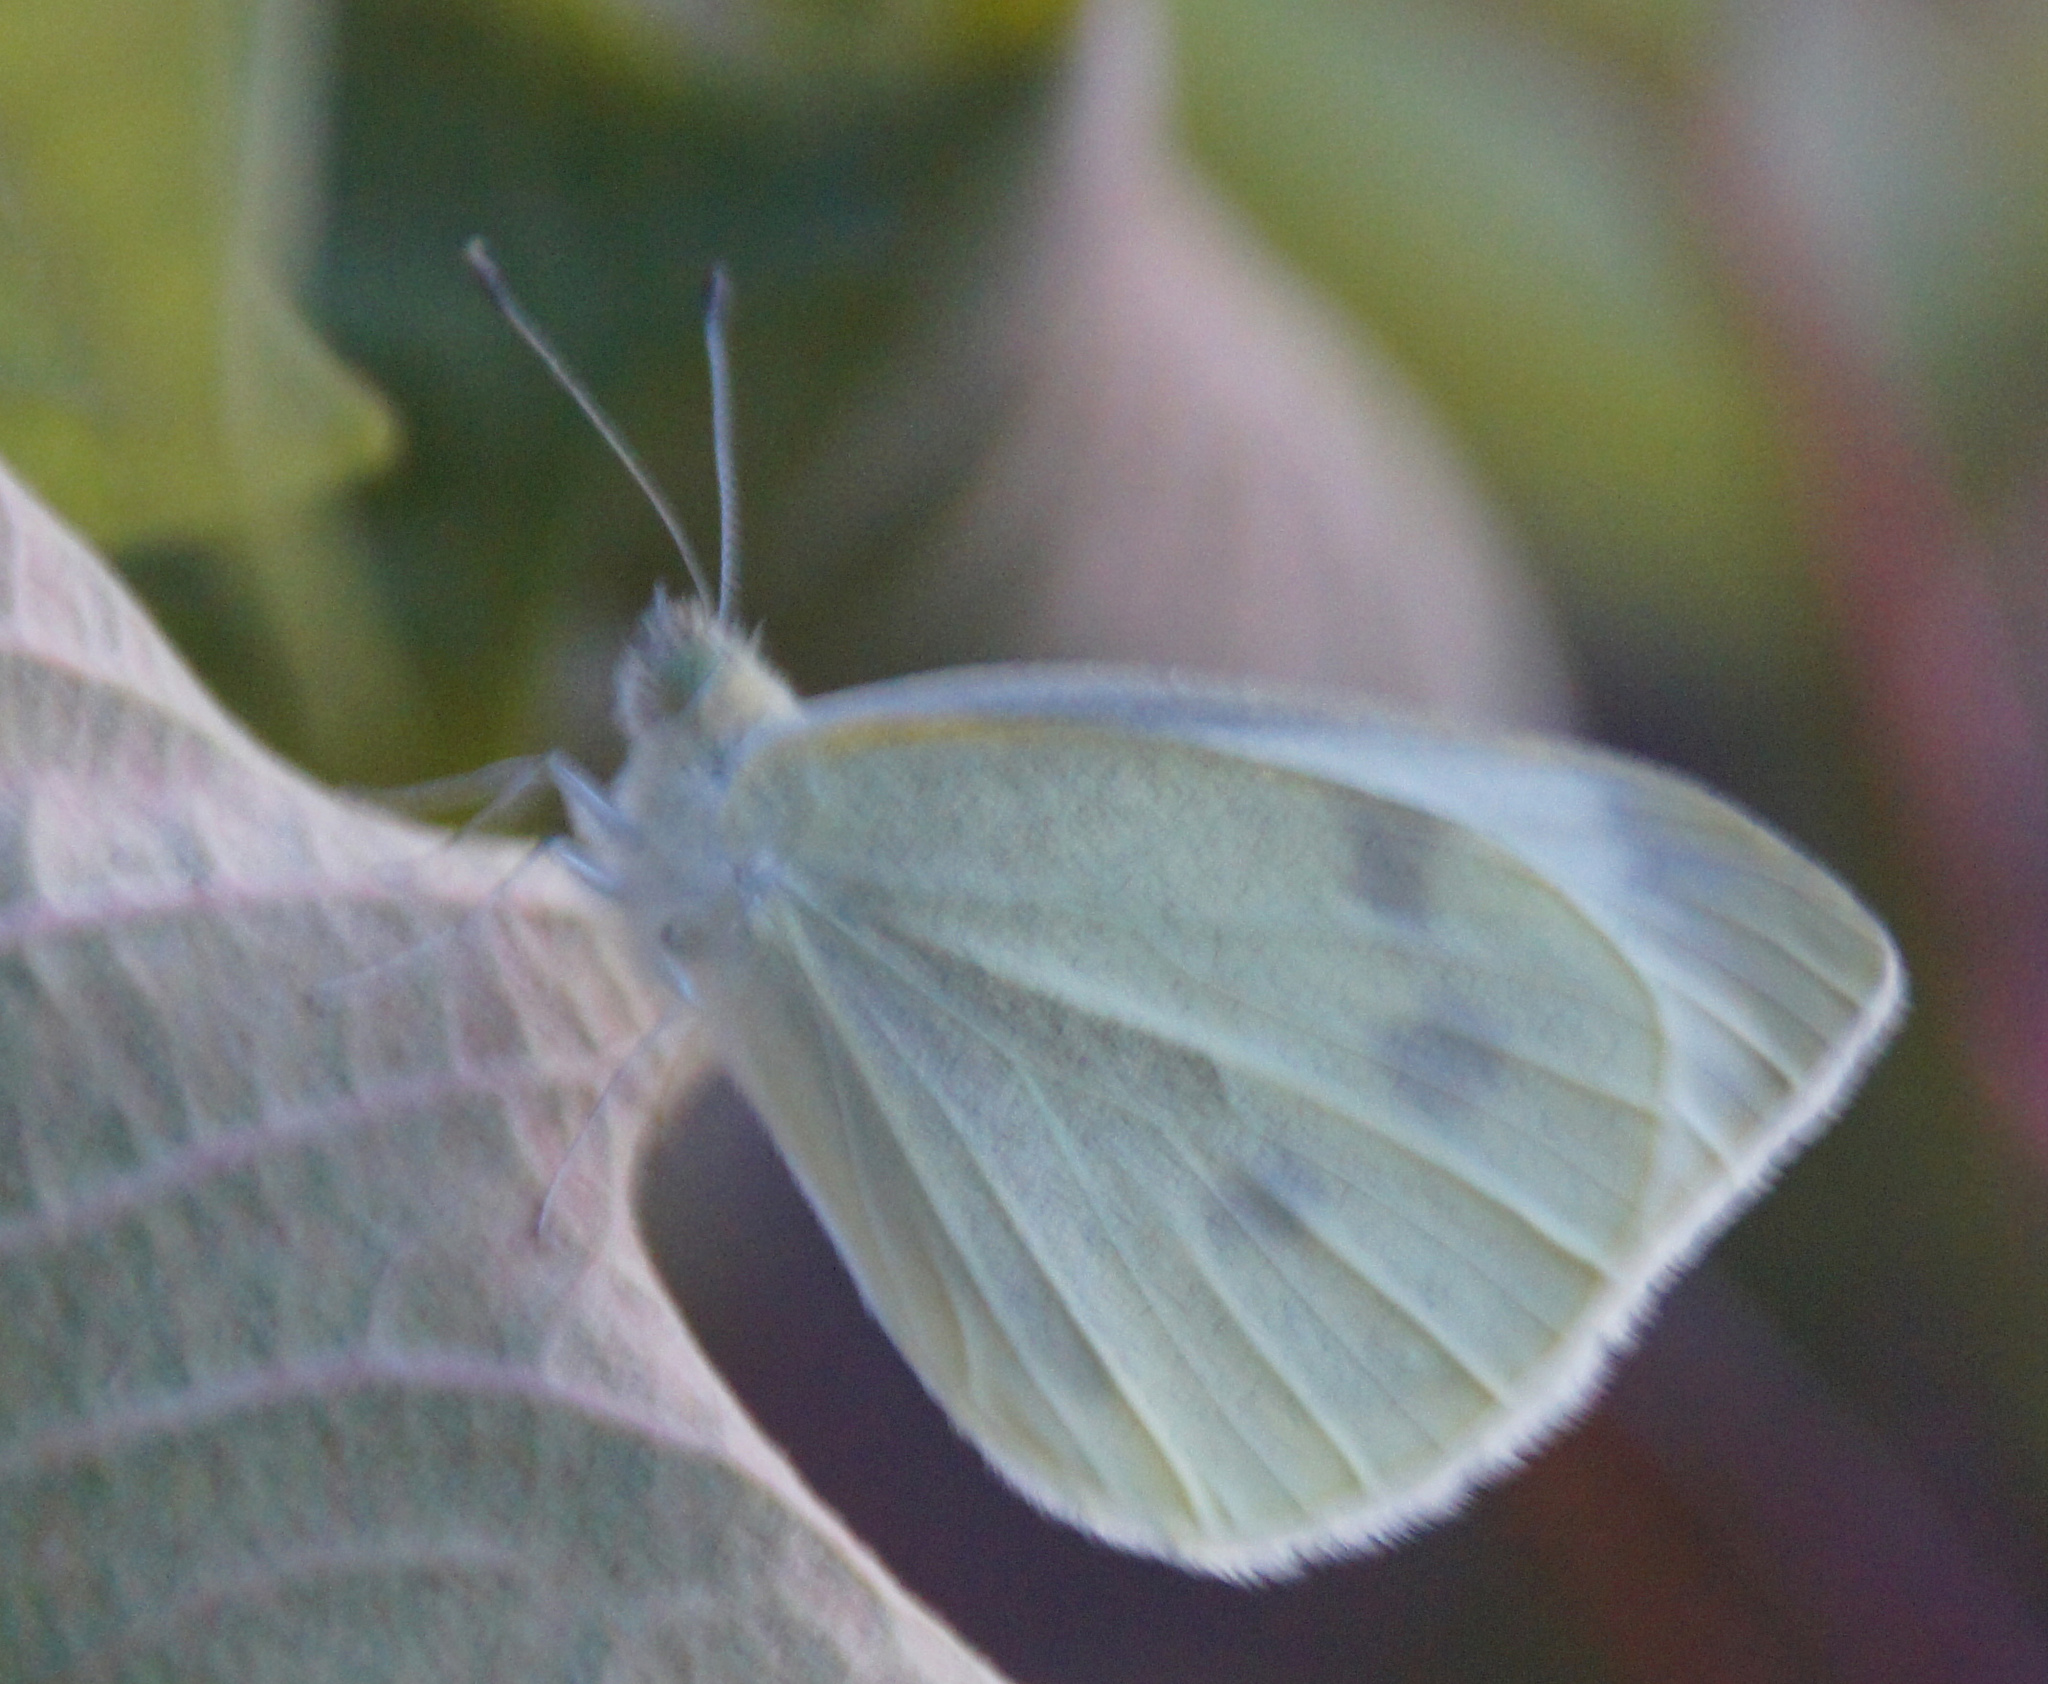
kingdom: Animalia
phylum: Arthropoda
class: Insecta
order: Lepidoptera
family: Pieridae
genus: Pieris
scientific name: Pieris rapae
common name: Small white
